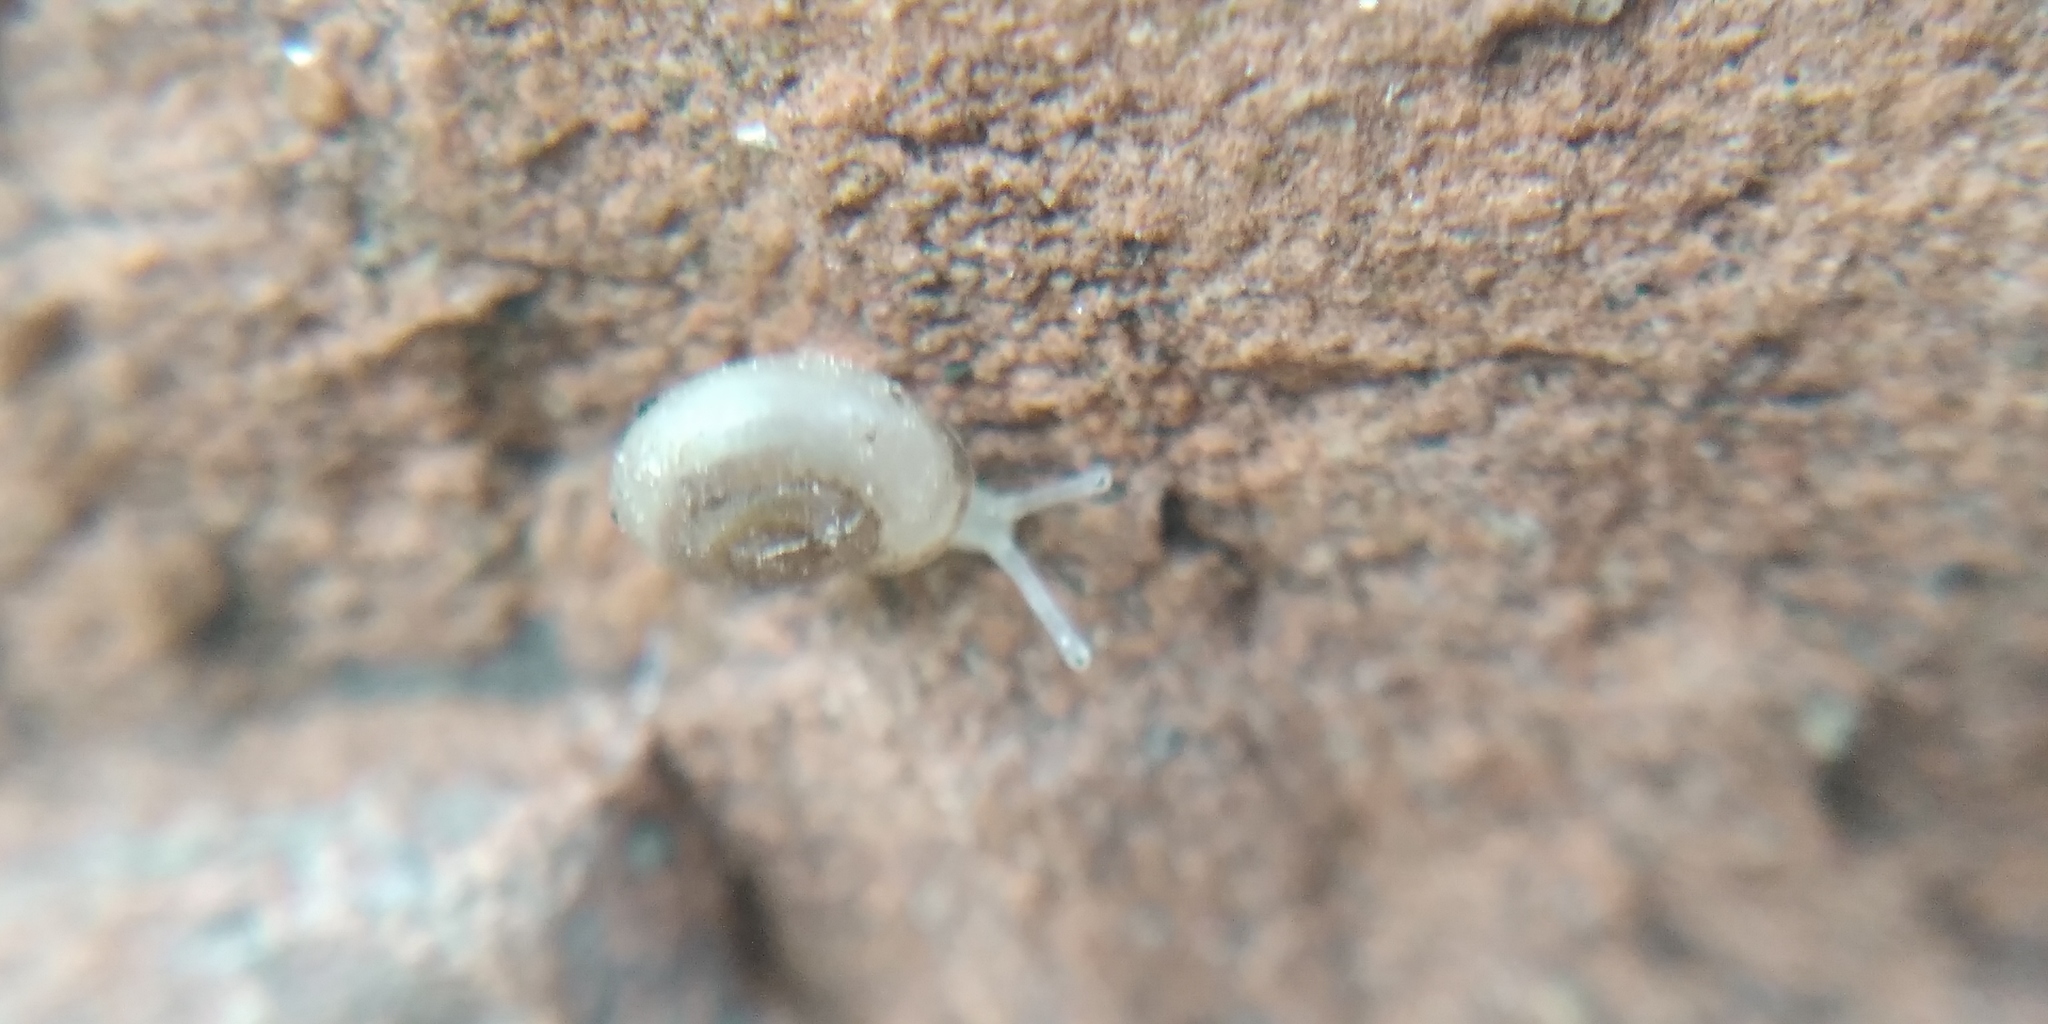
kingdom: Animalia
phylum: Mollusca
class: Gastropoda
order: Stylommatophora
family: Valloniidae
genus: Vallonia
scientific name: Vallonia pulchella
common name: Smooth grass snail
